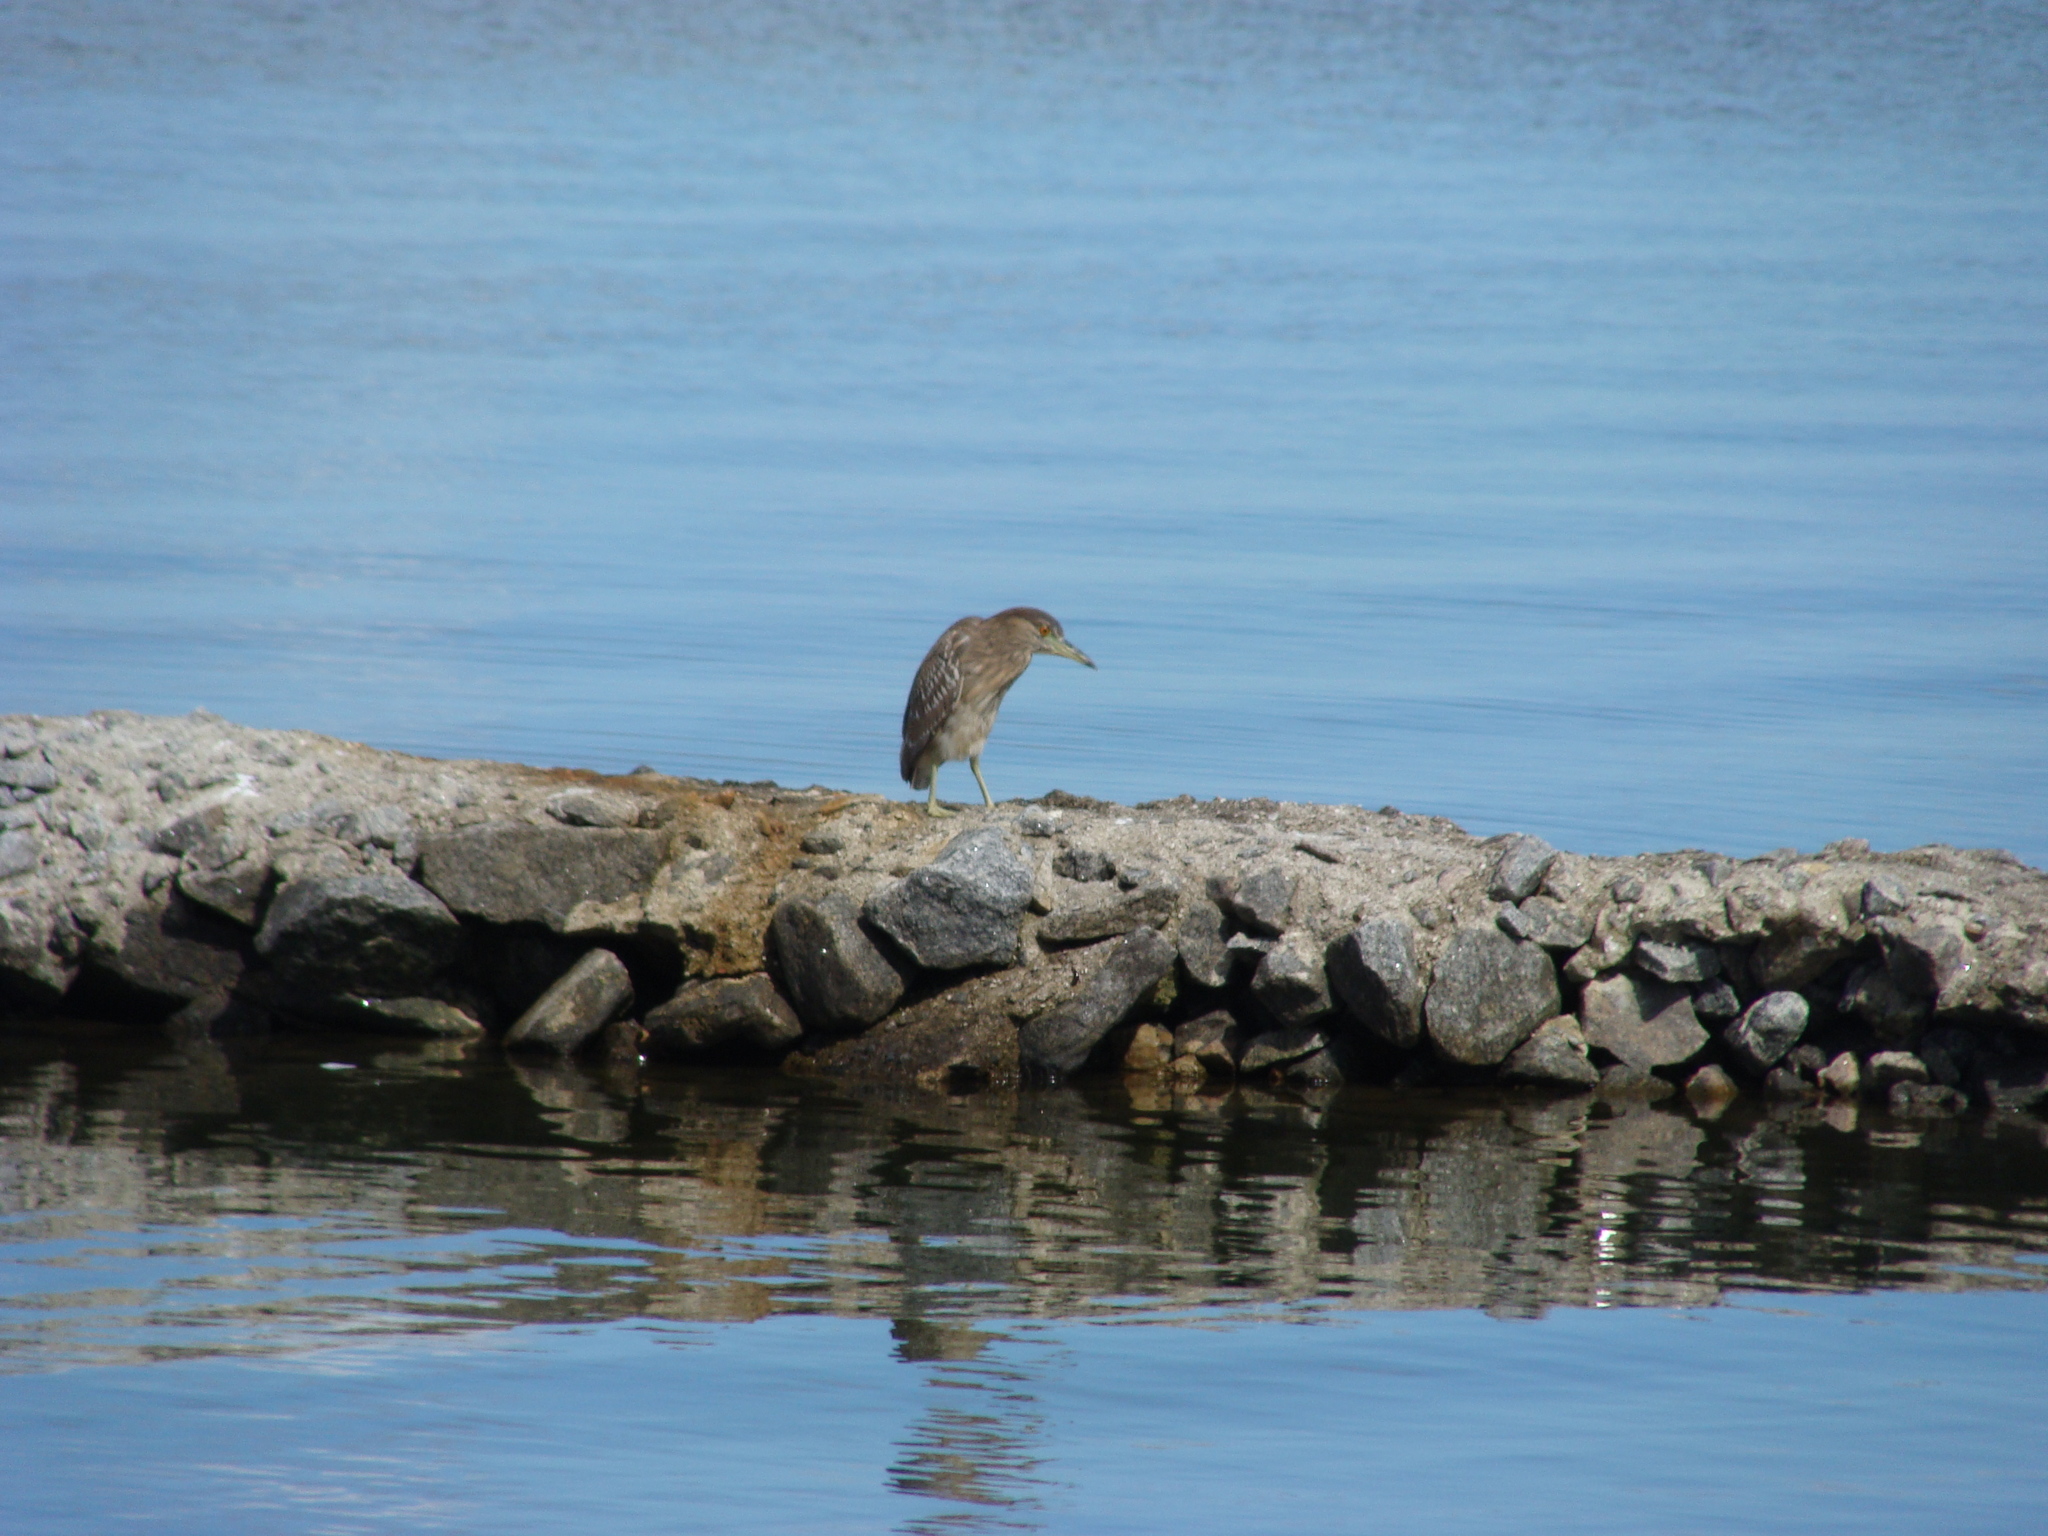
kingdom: Animalia
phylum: Chordata
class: Aves
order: Pelecaniformes
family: Ardeidae
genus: Nycticorax
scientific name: Nycticorax nycticorax
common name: Black-crowned night heron
